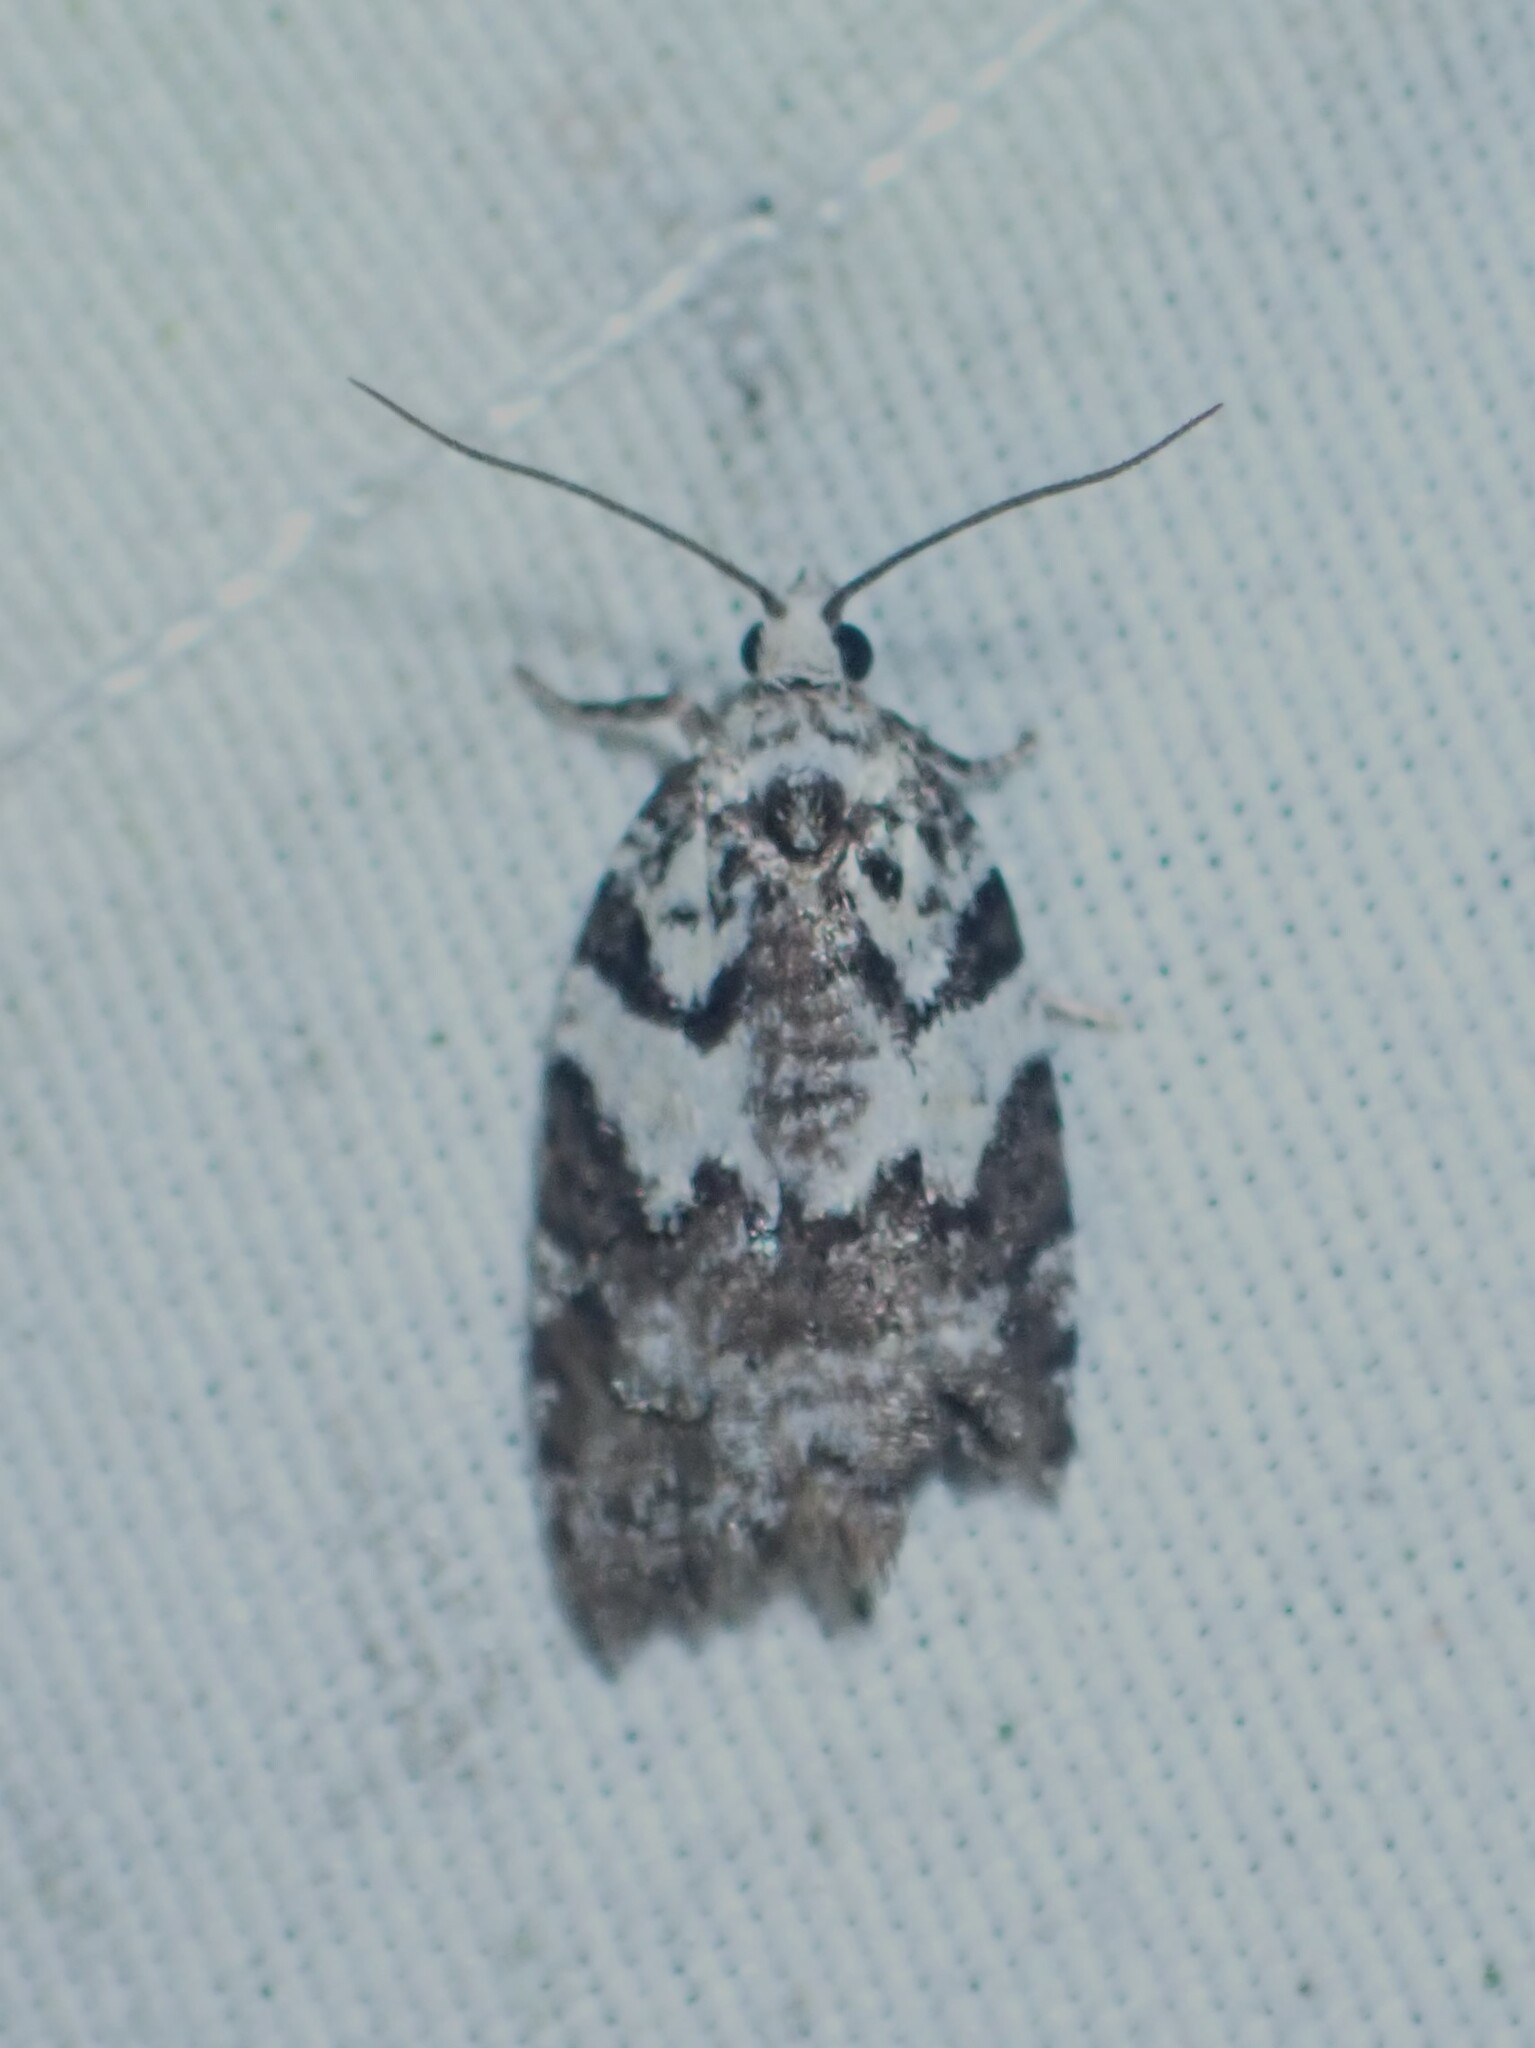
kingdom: Animalia
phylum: Arthropoda
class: Insecta
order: Lepidoptera
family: Tortricidae
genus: Acleris
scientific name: Acleris variana
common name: Eastern black-headed budworm moth
